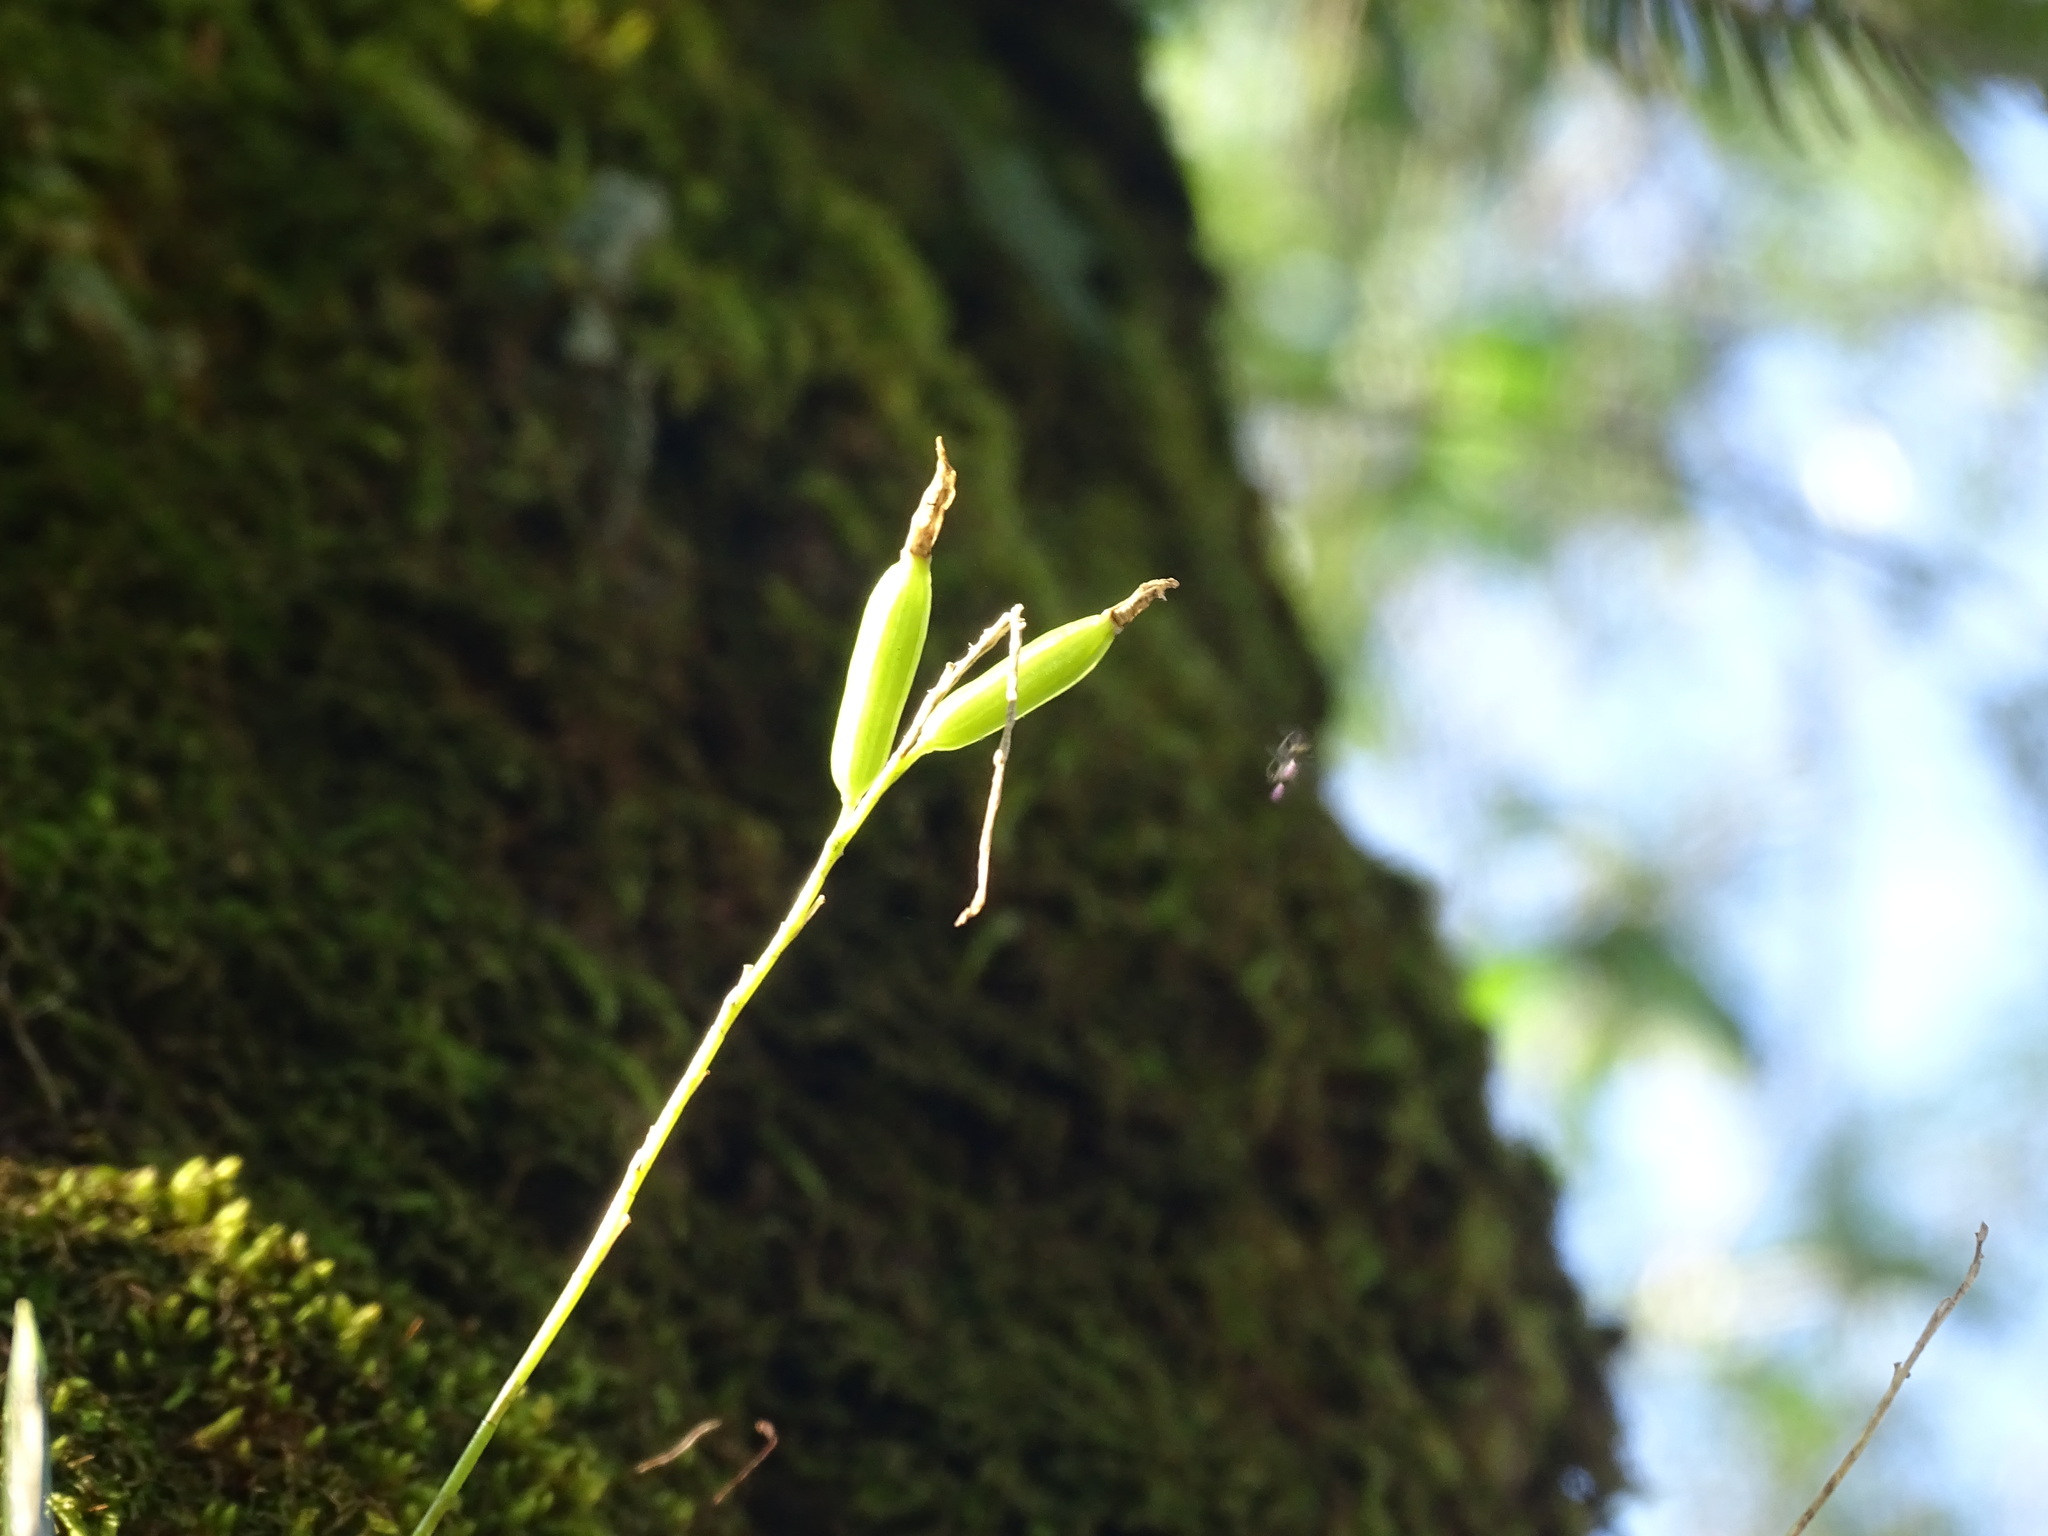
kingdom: Plantae
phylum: Tracheophyta
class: Liliopsida
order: Asparagales
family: Orchidaceae
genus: Pleurothallis
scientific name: Pleurothallis quadrifida
